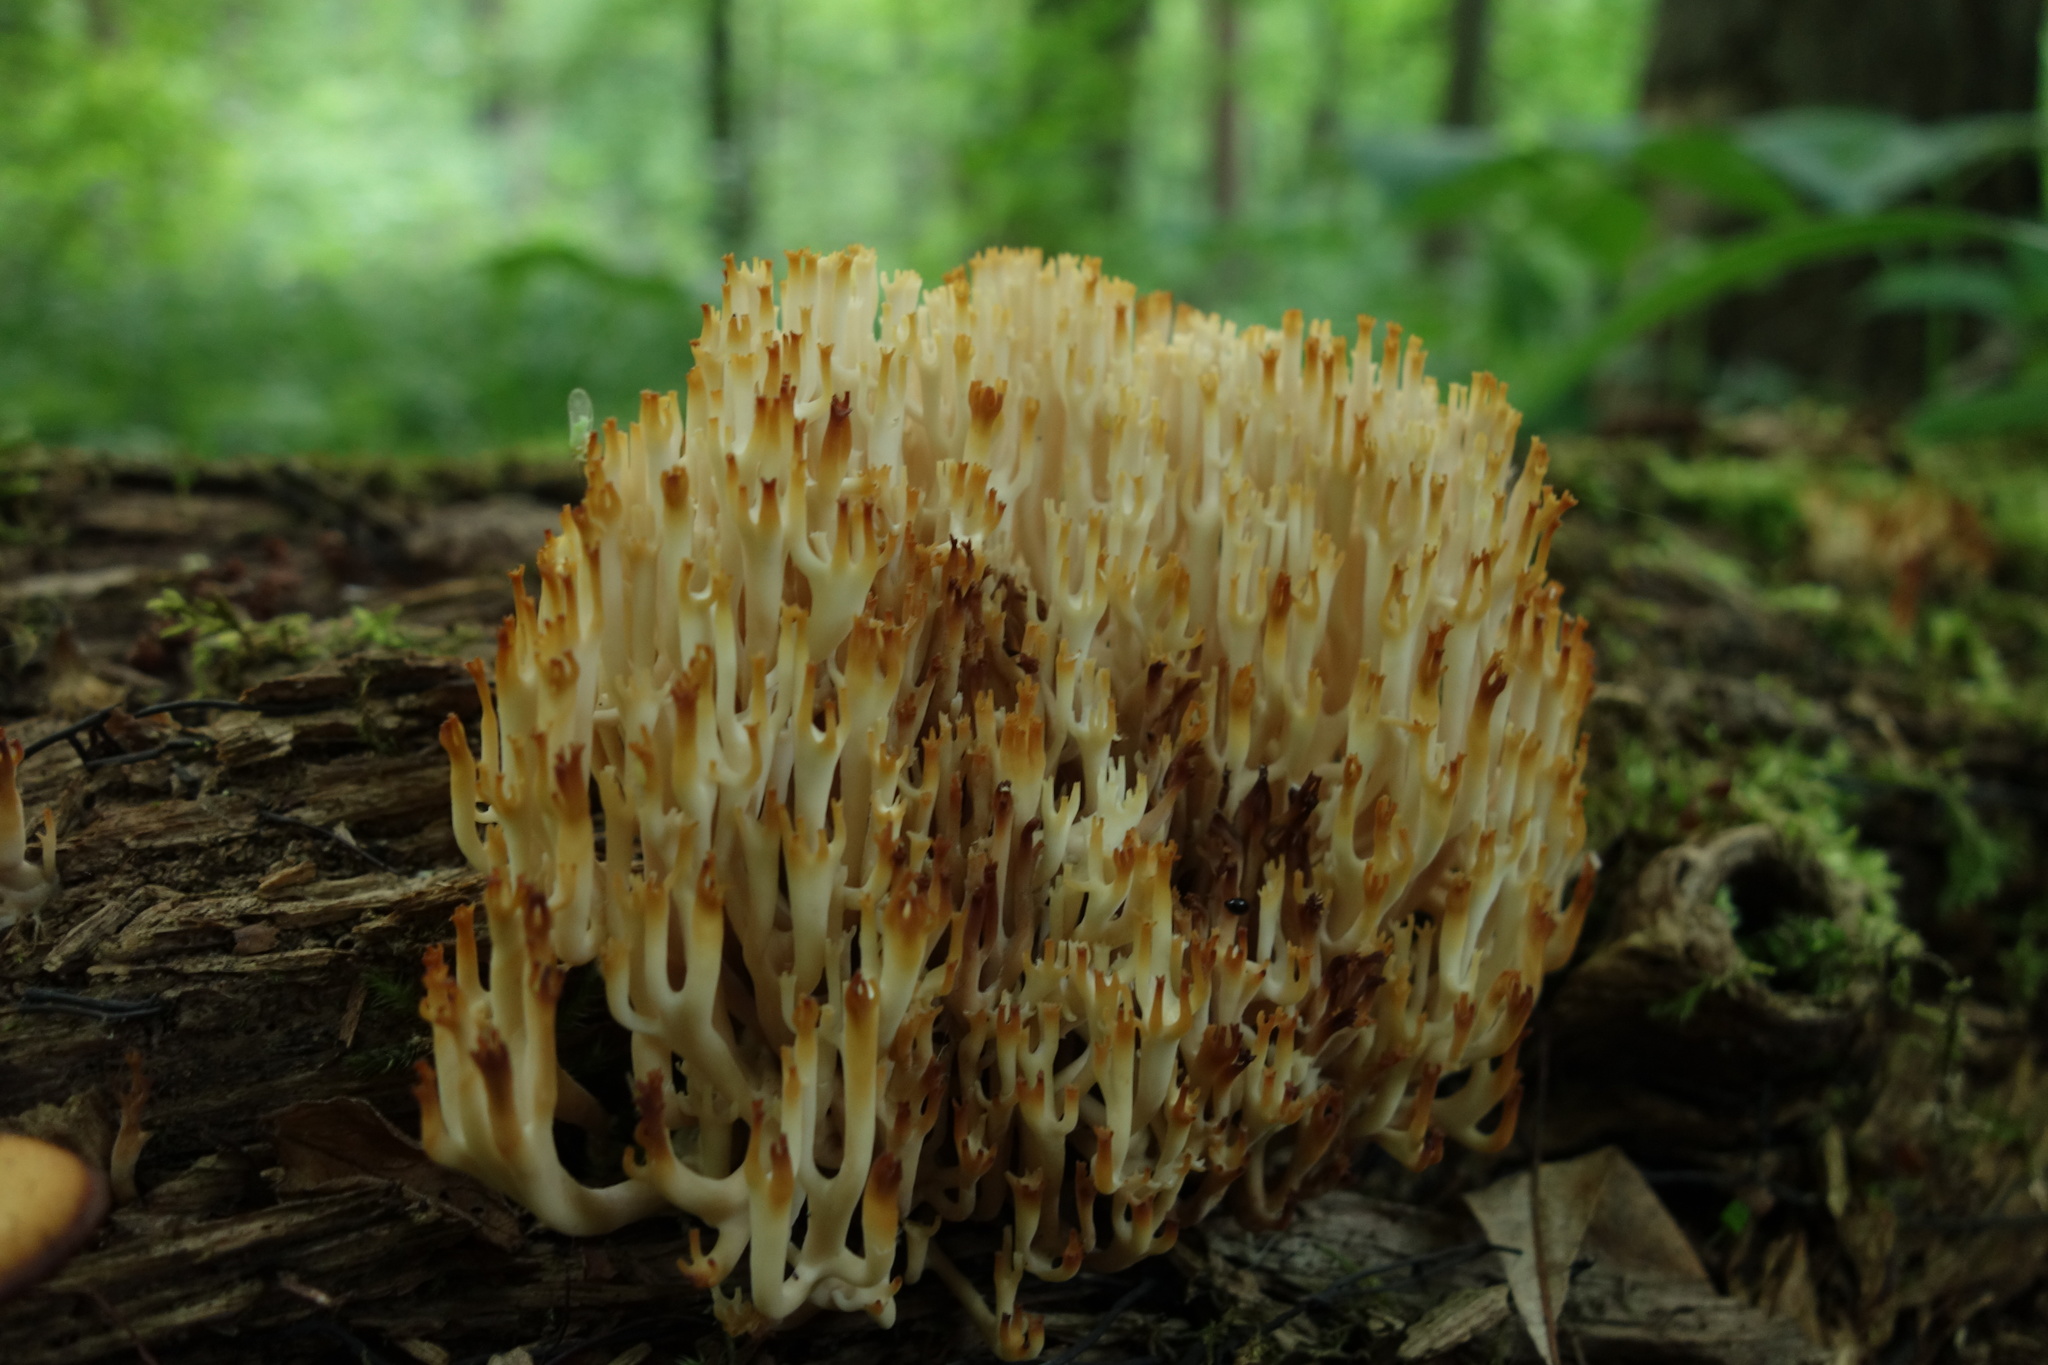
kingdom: Fungi
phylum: Basidiomycota
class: Agaricomycetes
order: Russulales
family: Auriscalpiaceae
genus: Artomyces
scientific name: Artomyces pyxidatus
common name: Crown-tipped coral fungus
